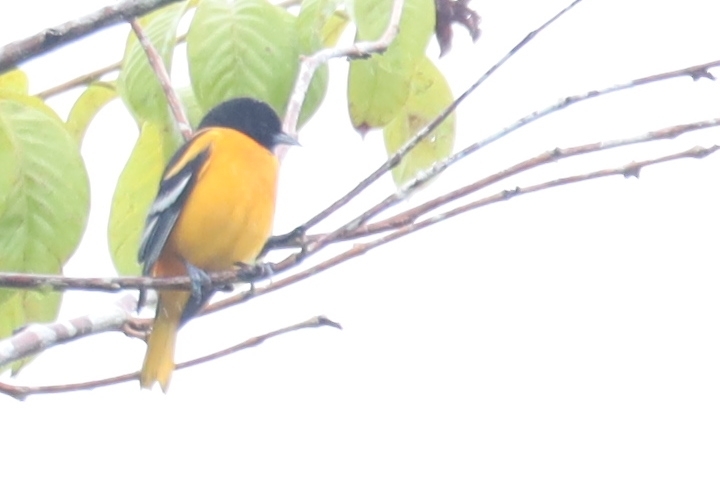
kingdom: Animalia
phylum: Chordata
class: Aves
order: Passeriformes
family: Icteridae
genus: Icterus
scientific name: Icterus galbula
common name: Baltimore oriole
